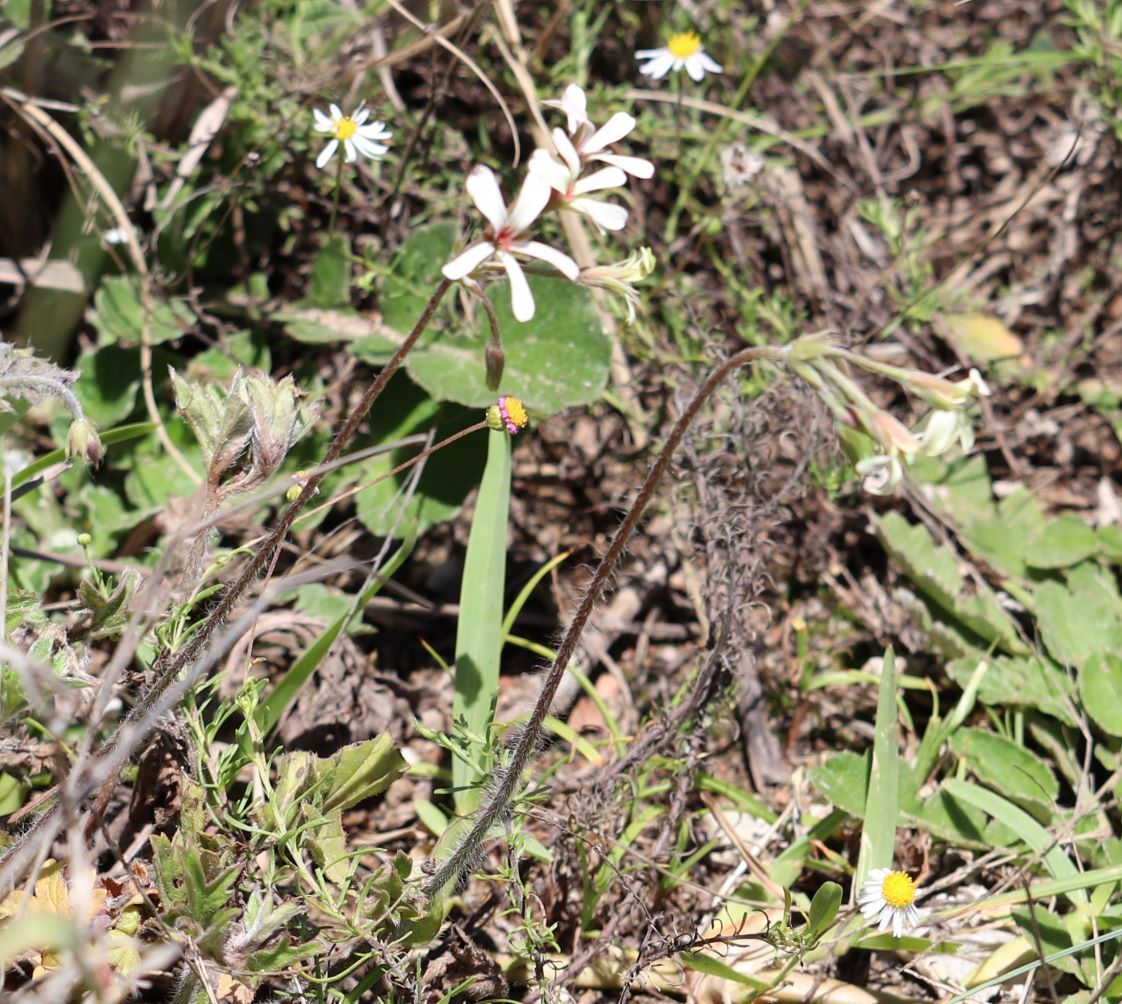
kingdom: Plantae
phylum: Tracheophyta
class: Magnoliopsida
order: Geraniales
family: Geraniaceae
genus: Pelargonium
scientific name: Pelargonium alchemilloides
